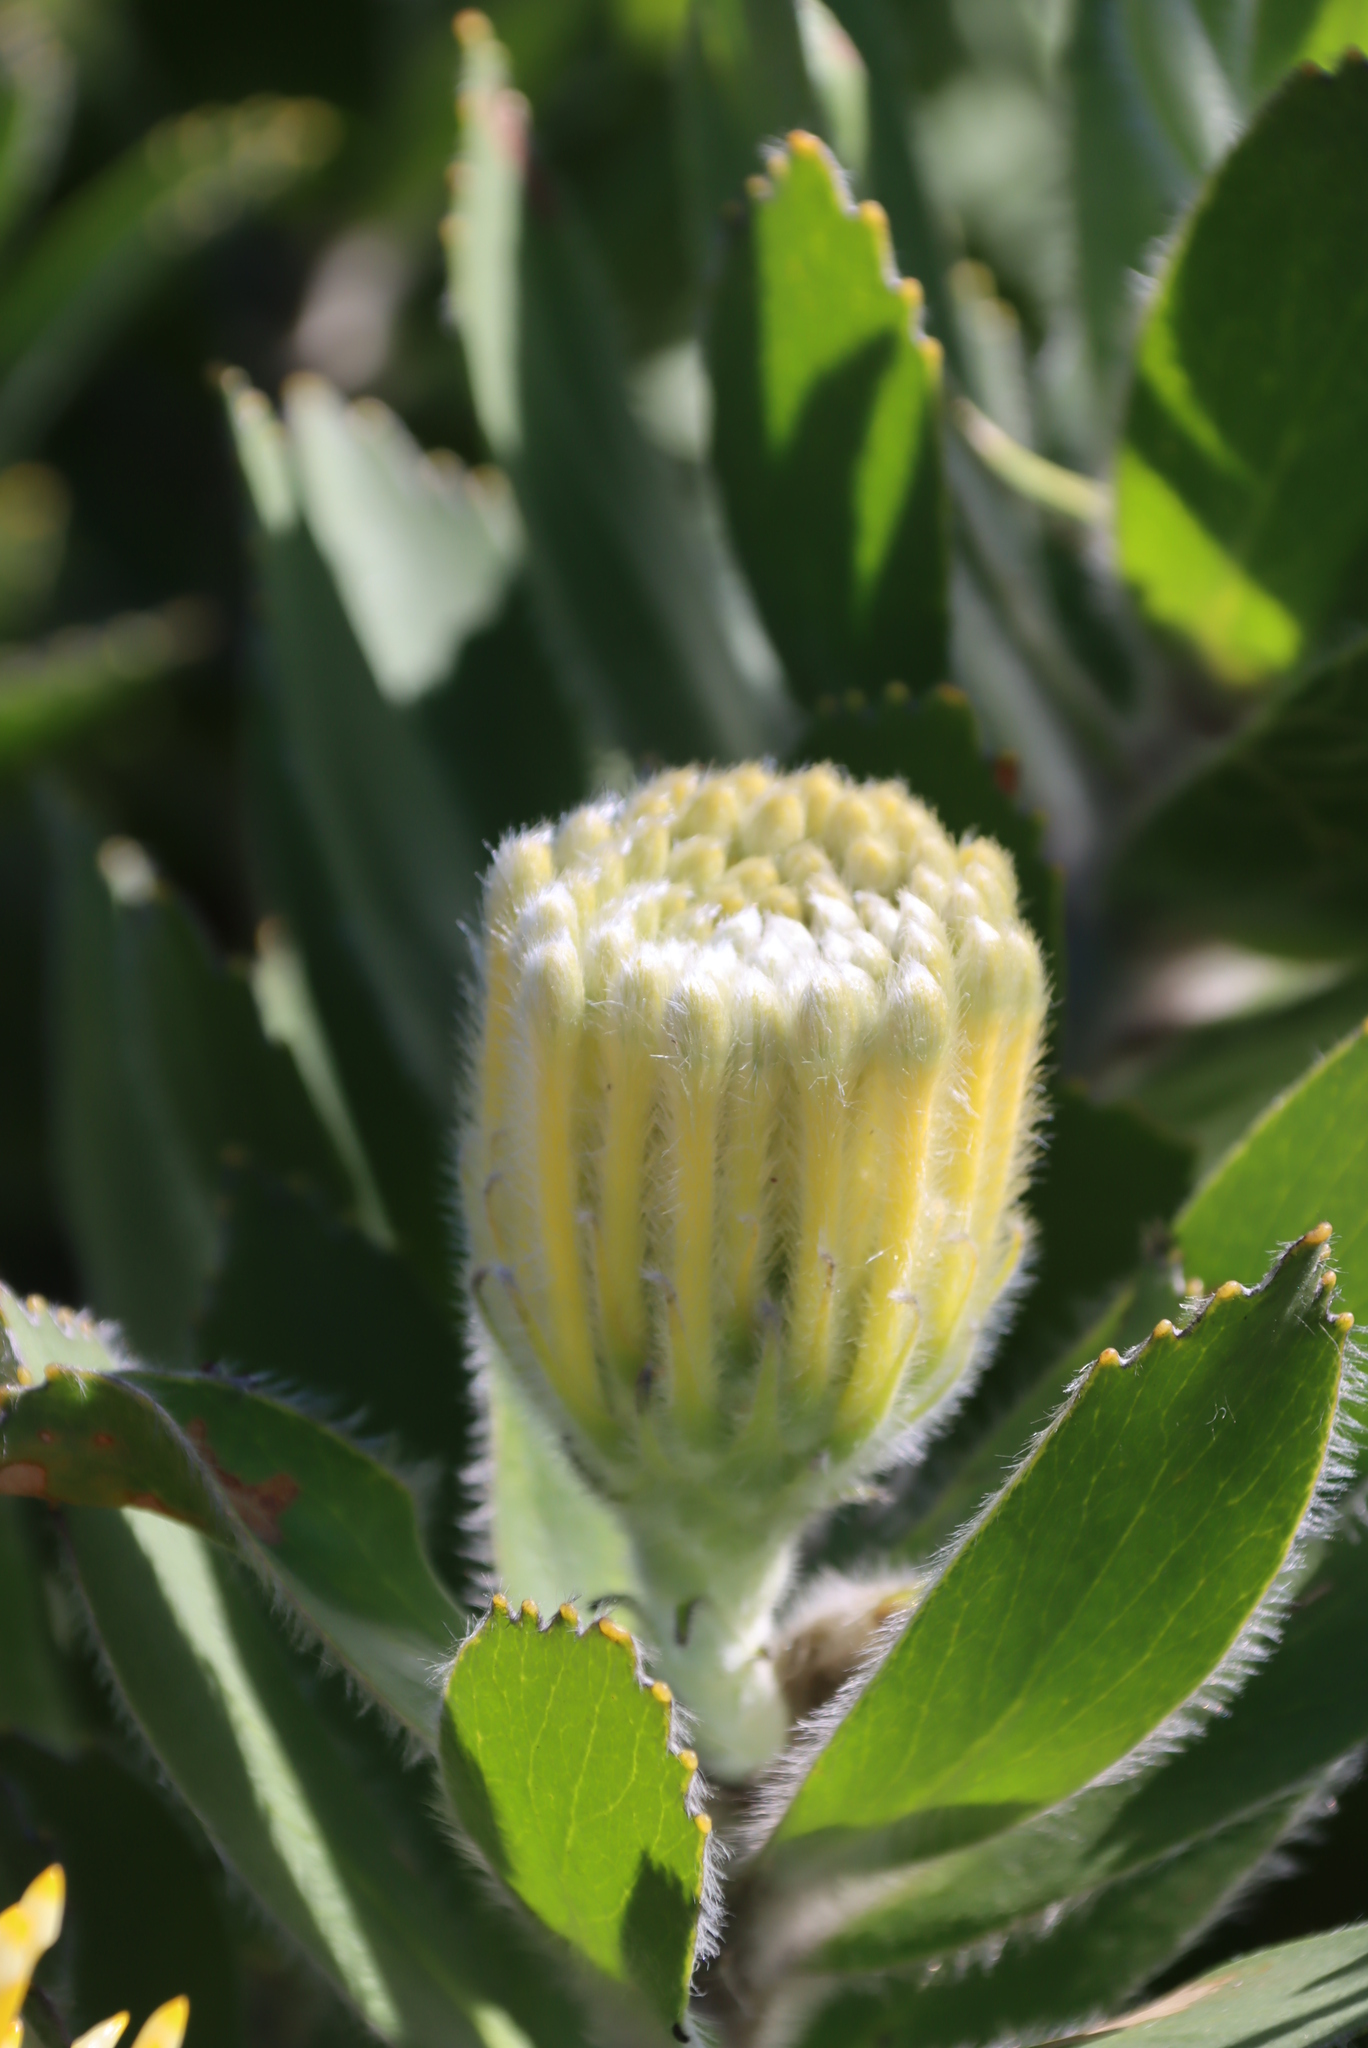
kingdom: Plantae
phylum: Tracheophyta
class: Magnoliopsida
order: Proteales
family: Proteaceae
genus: Leucospermum
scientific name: Leucospermum conocarpodendron
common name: Tree pincushion
